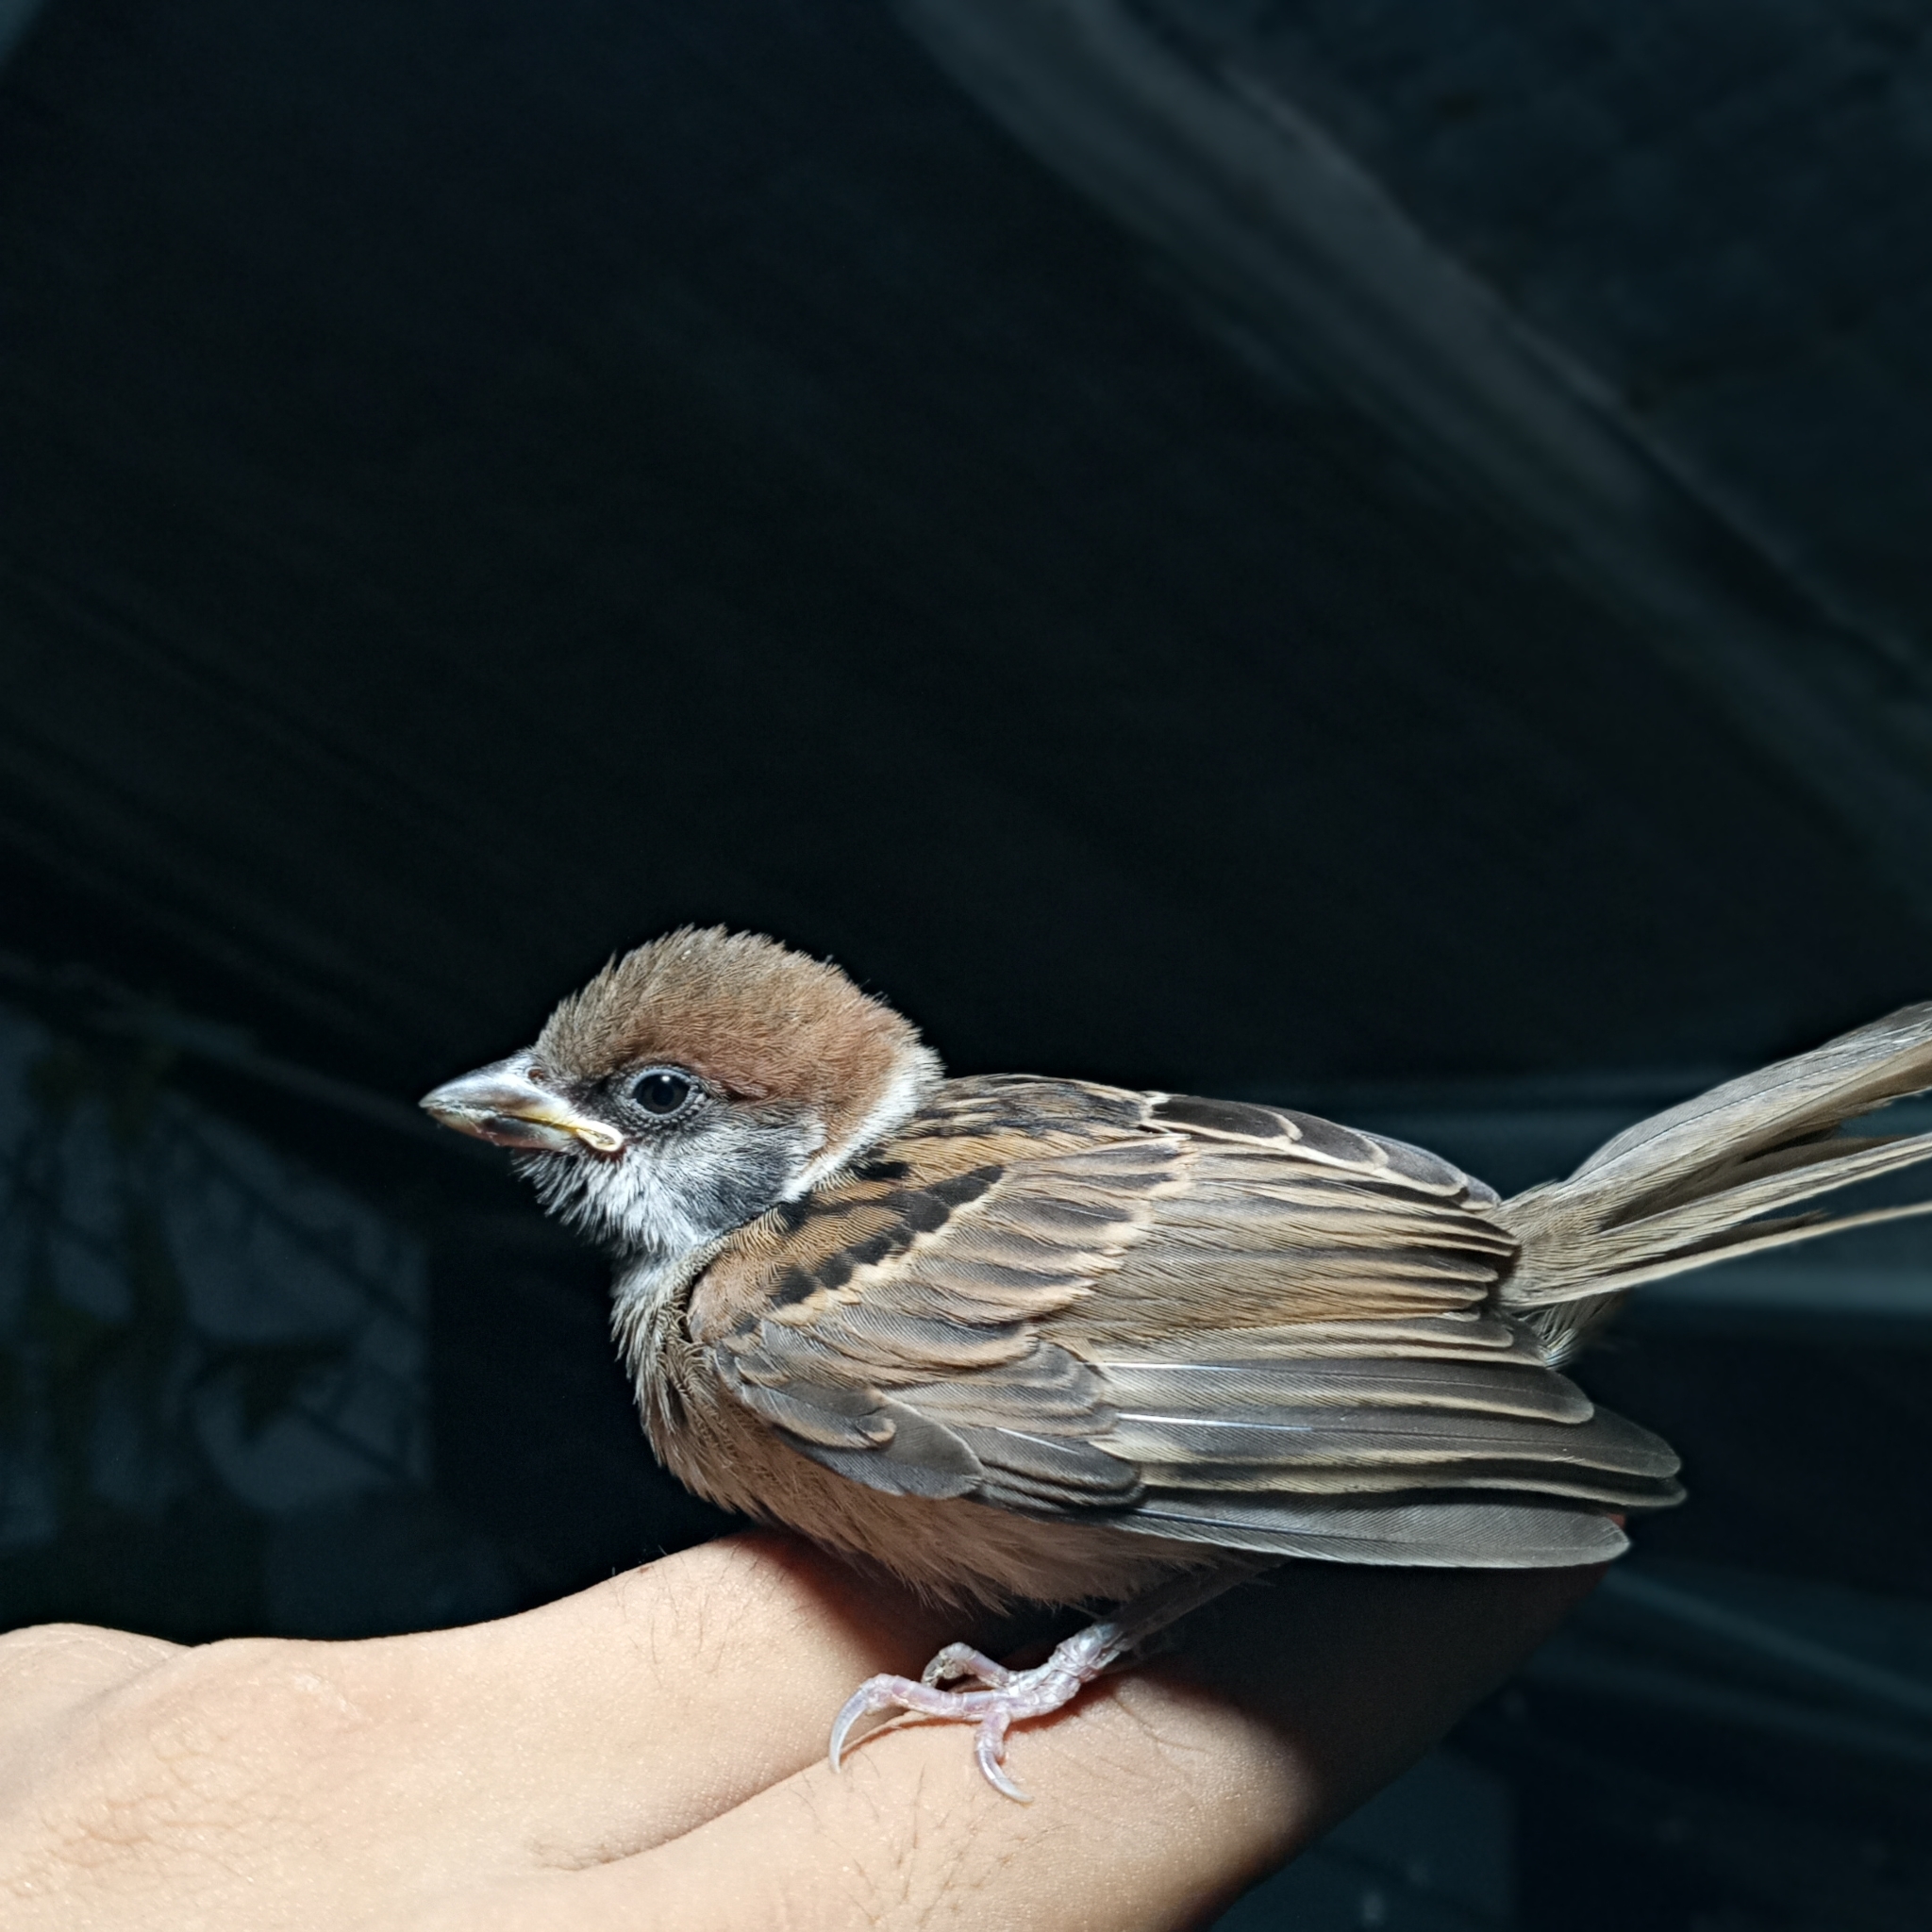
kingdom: Animalia
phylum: Chordata
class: Aves
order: Passeriformes
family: Passeridae
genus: Passer
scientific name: Passer montanus
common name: Eurasian tree sparrow
